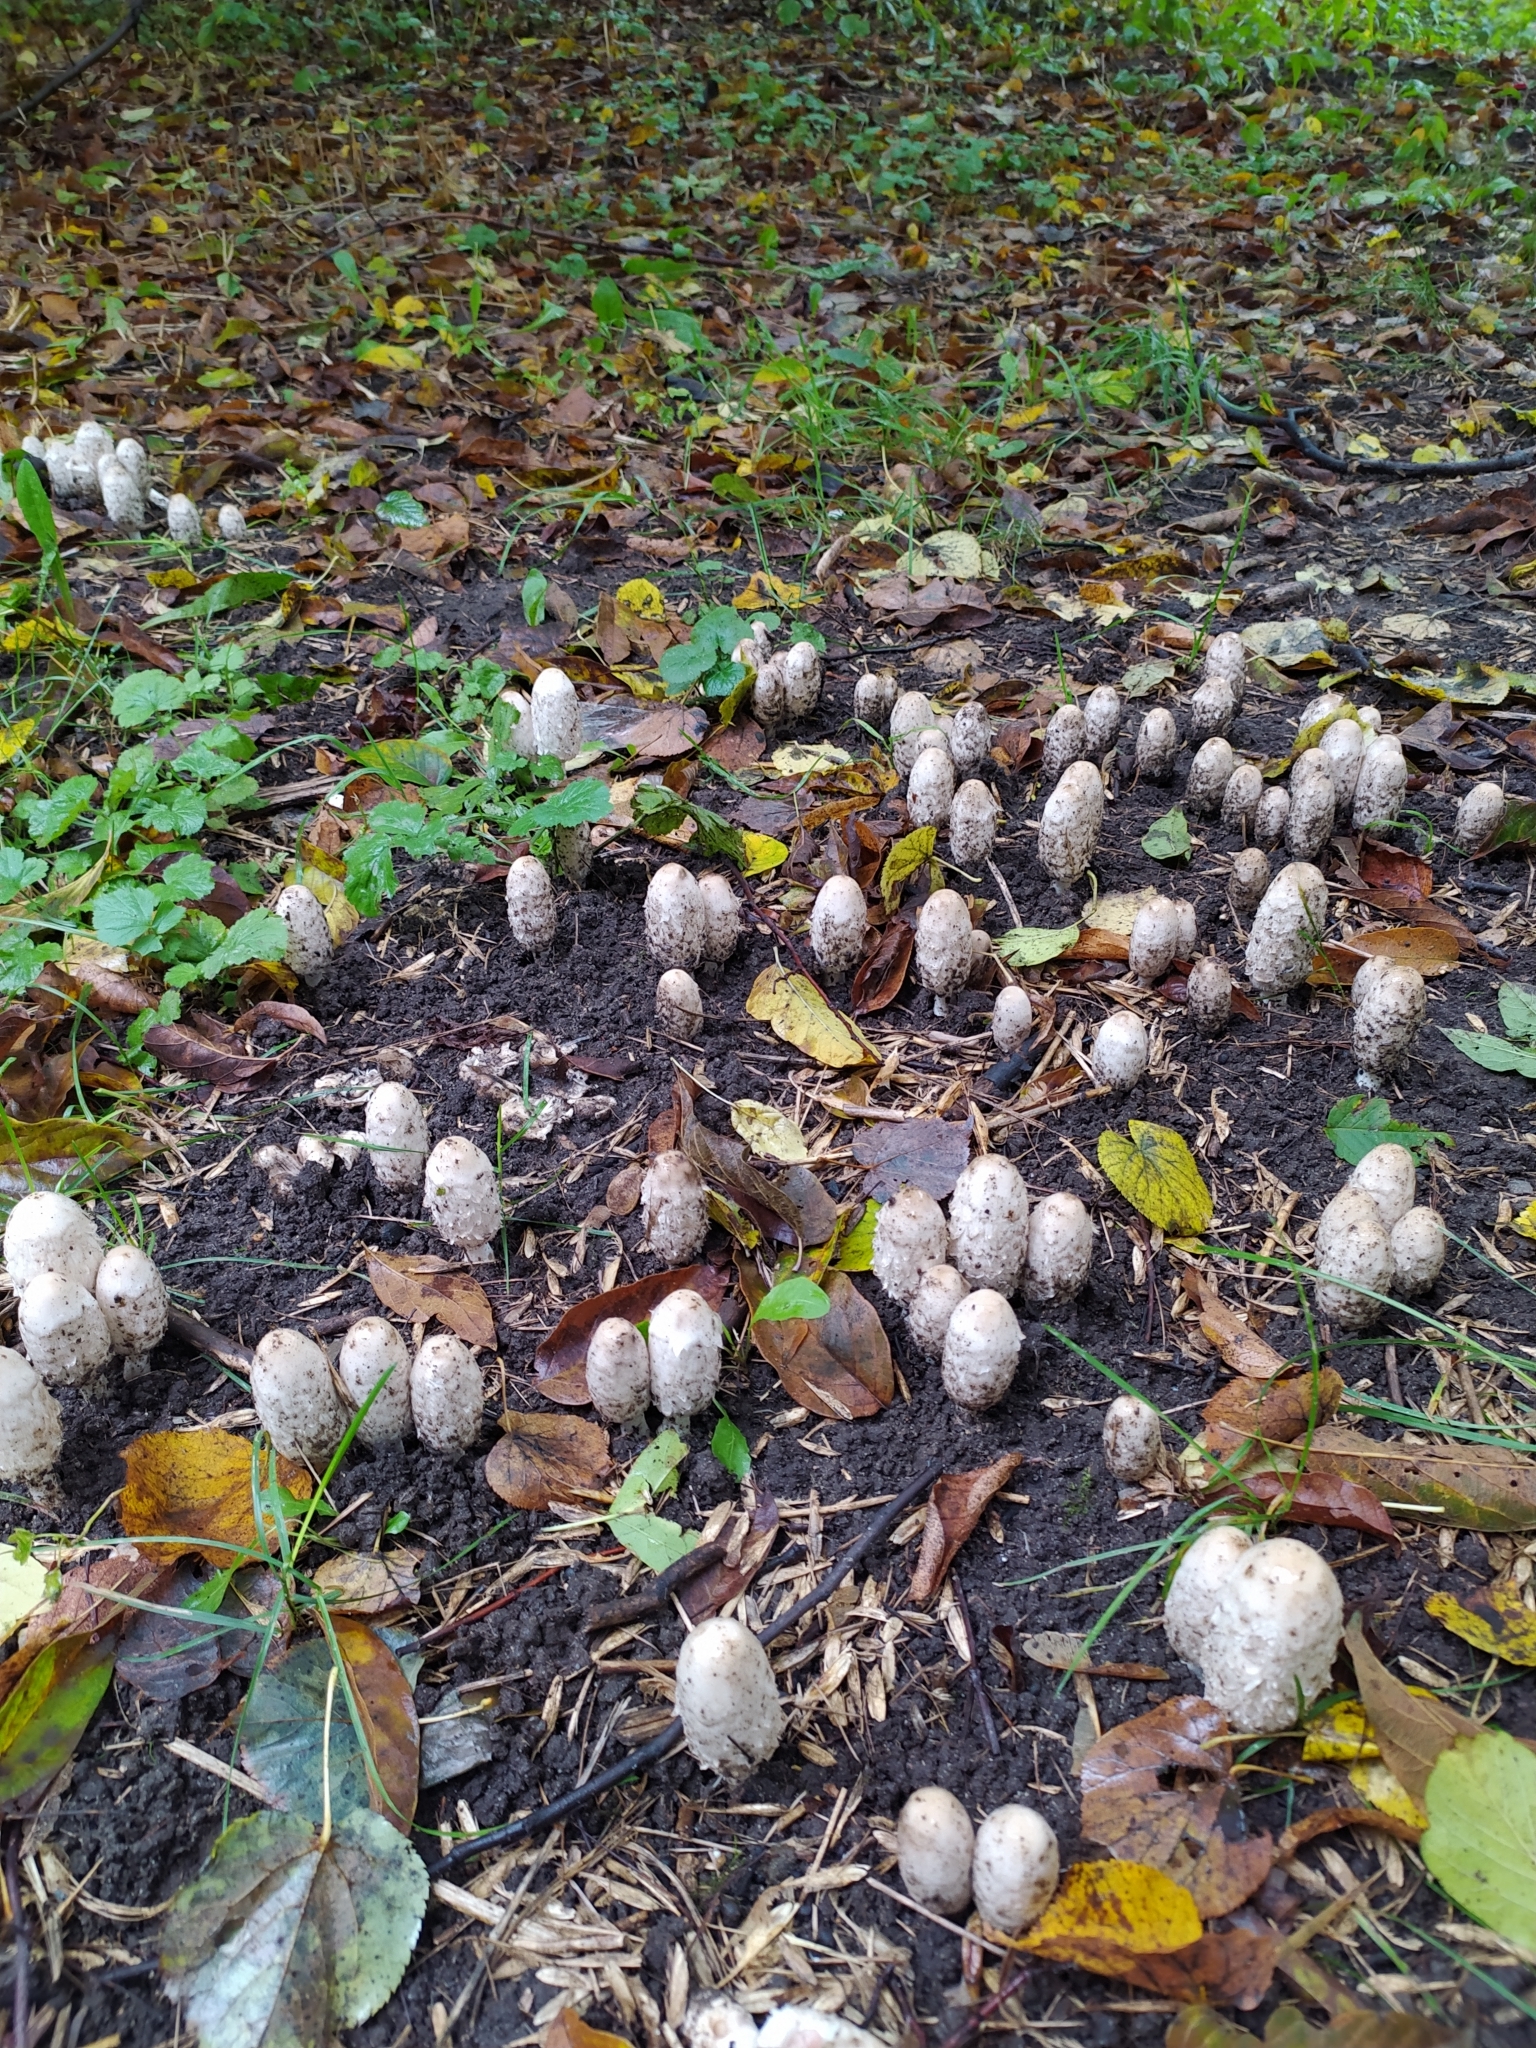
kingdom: Fungi
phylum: Basidiomycota
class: Agaricomycetes
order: Agaricales
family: Agaricaceae
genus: Coprinus
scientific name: Coprinus comatus
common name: Lawyer's wig
